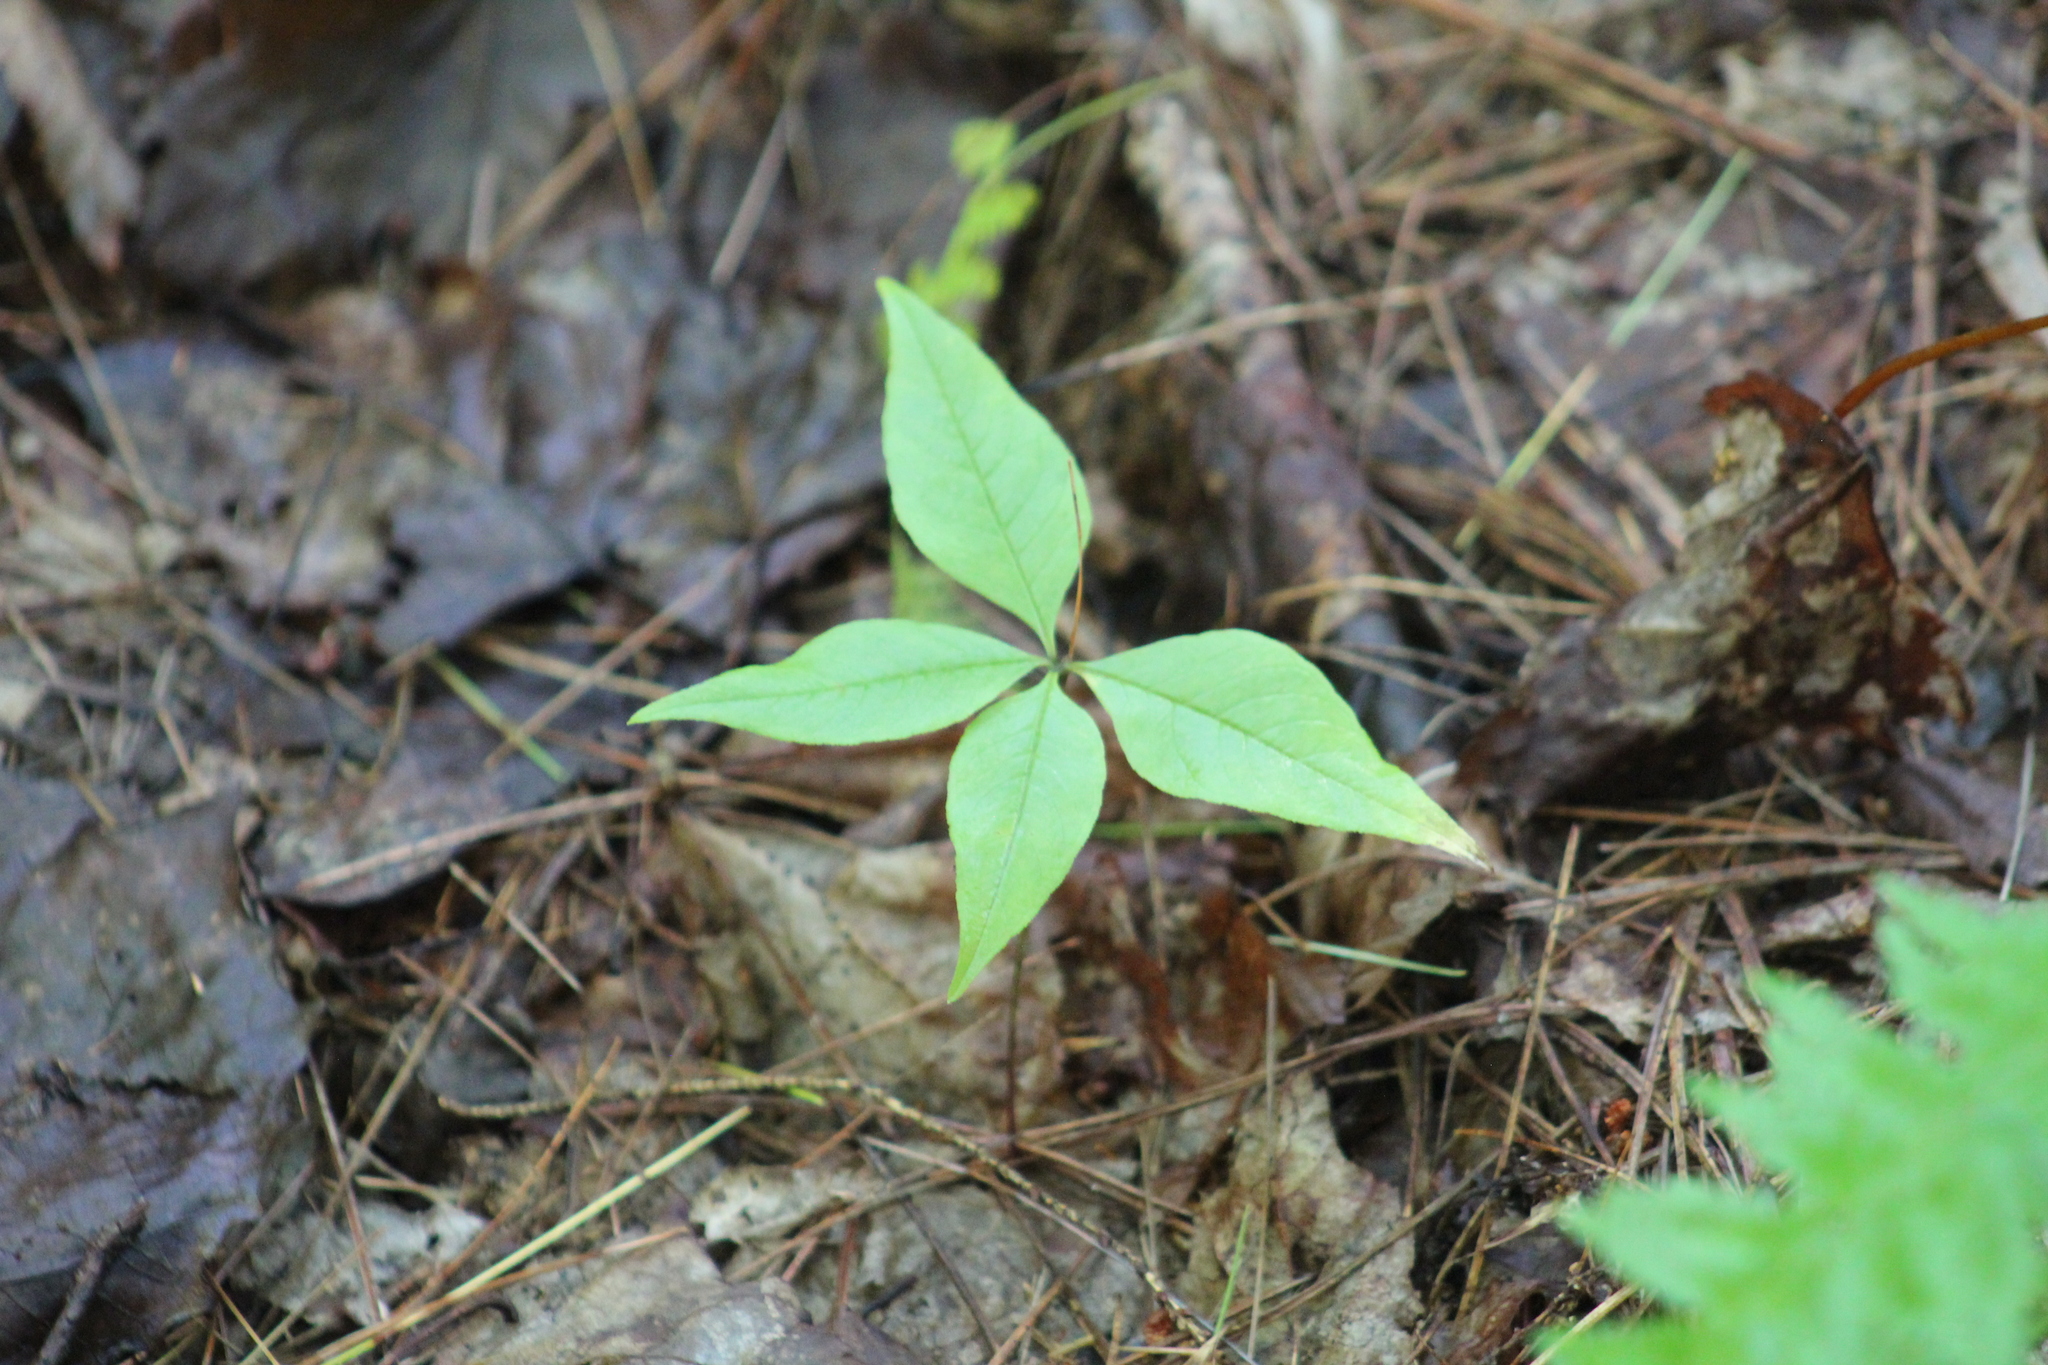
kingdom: Plantae
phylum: Tracheophyta
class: Magnoliopsida
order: Ericales
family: Primulaceae
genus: Lysimachia
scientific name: Lysimachia borealis
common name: American starflower
